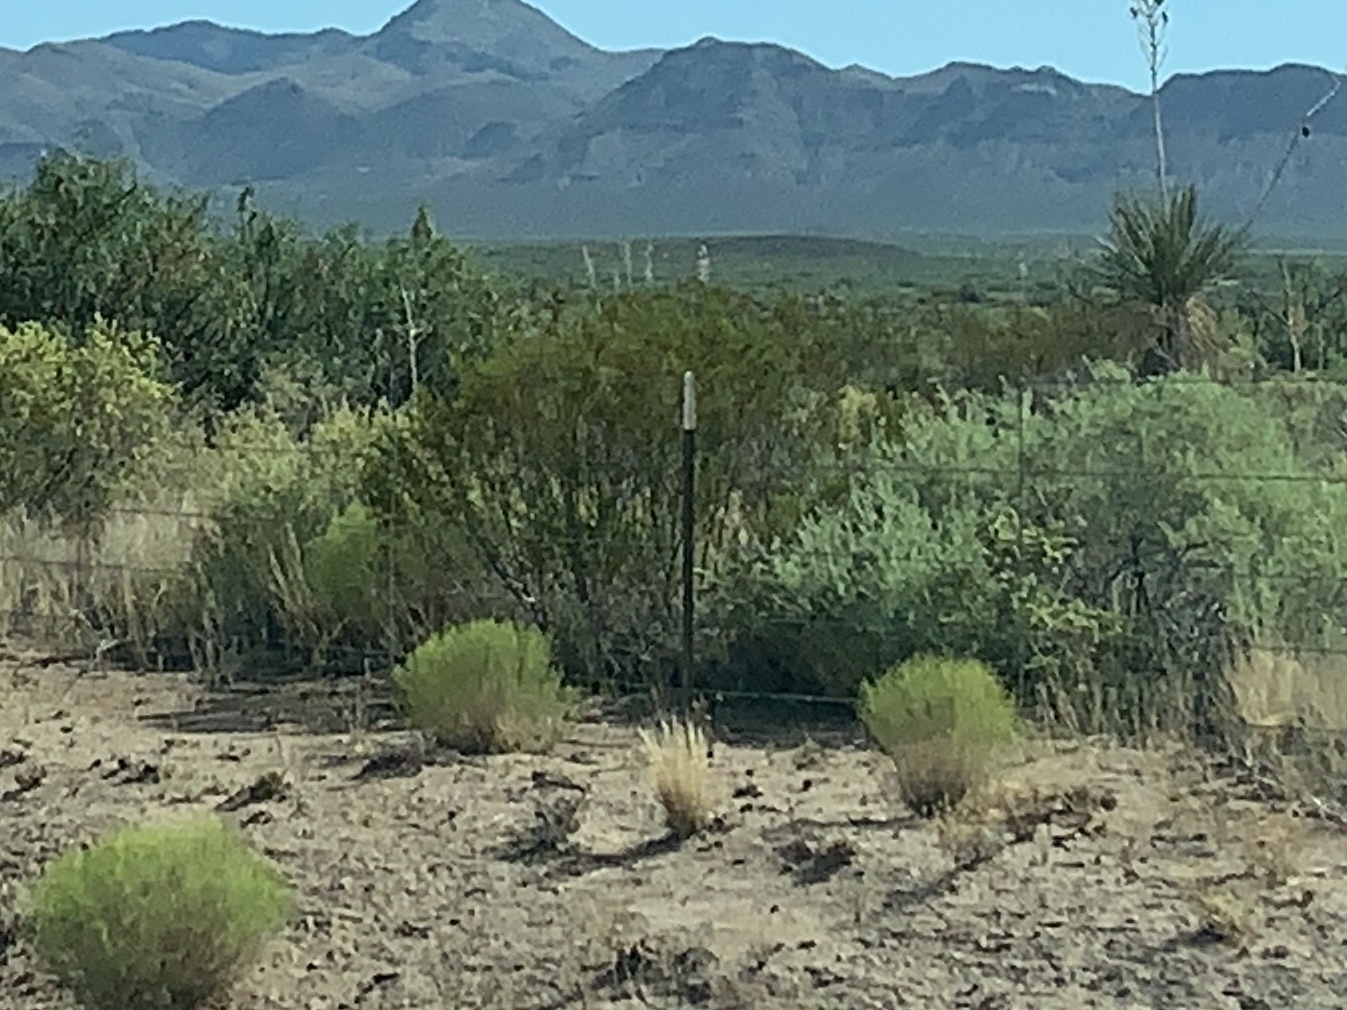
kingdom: Plantae
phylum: Tracheophyta
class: Magnoliopsida
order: Zygophyllales
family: Zygophyllaceae
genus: Larrea
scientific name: Larrea tridentata
